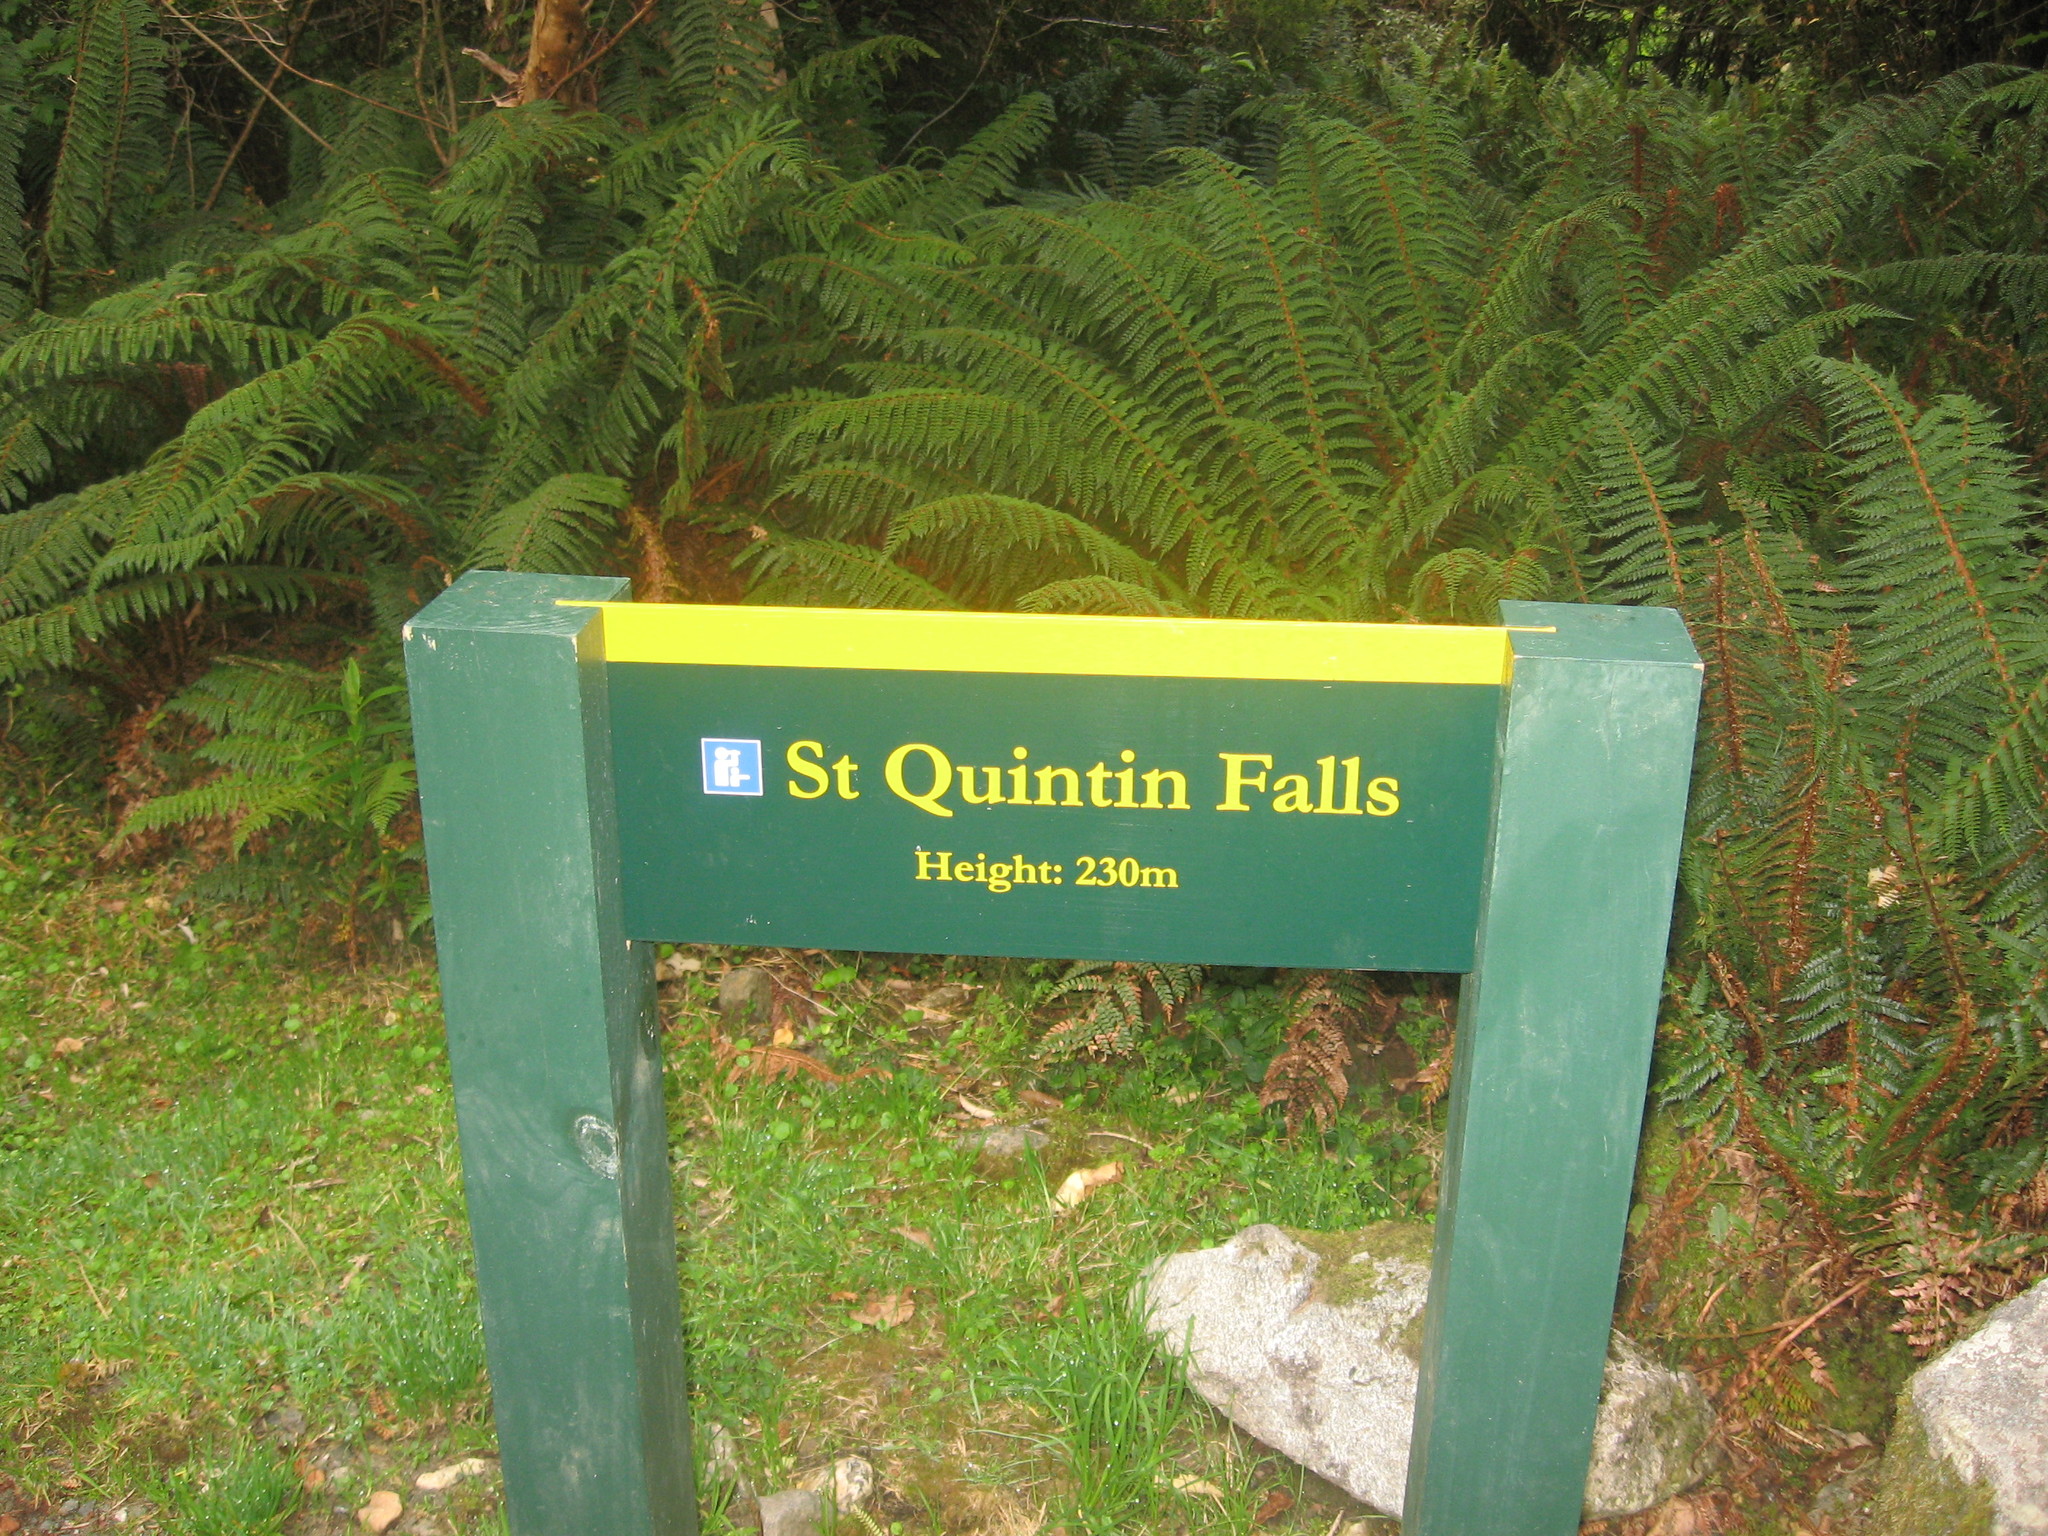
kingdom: Plantae
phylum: Tracheophyta
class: Polypodiopsida
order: Polypodiales
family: Dryopteridaceae
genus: Polystichum
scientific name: Polystichum vestitum
